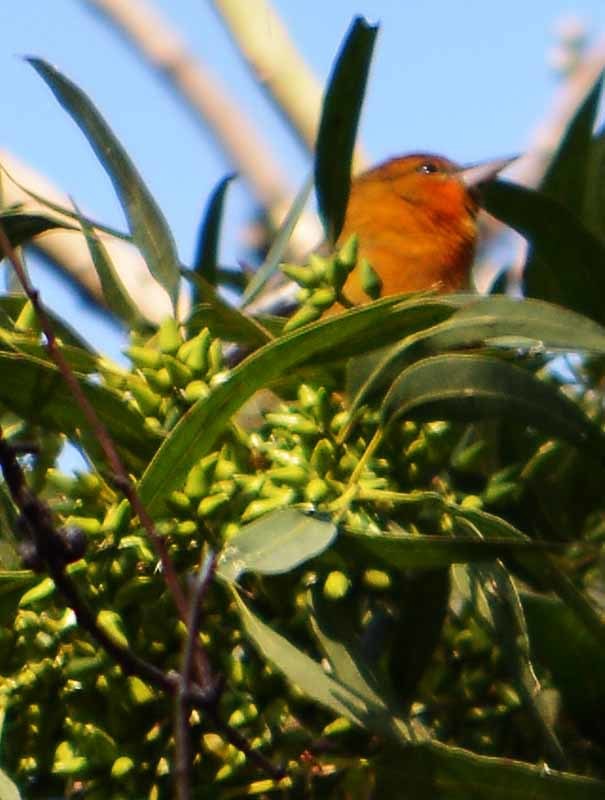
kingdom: Animalia
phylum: Chordata
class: Aves
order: Passeriformes
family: Icteridae
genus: Icterus
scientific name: Icterus bullockii
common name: Bullock's oriole
